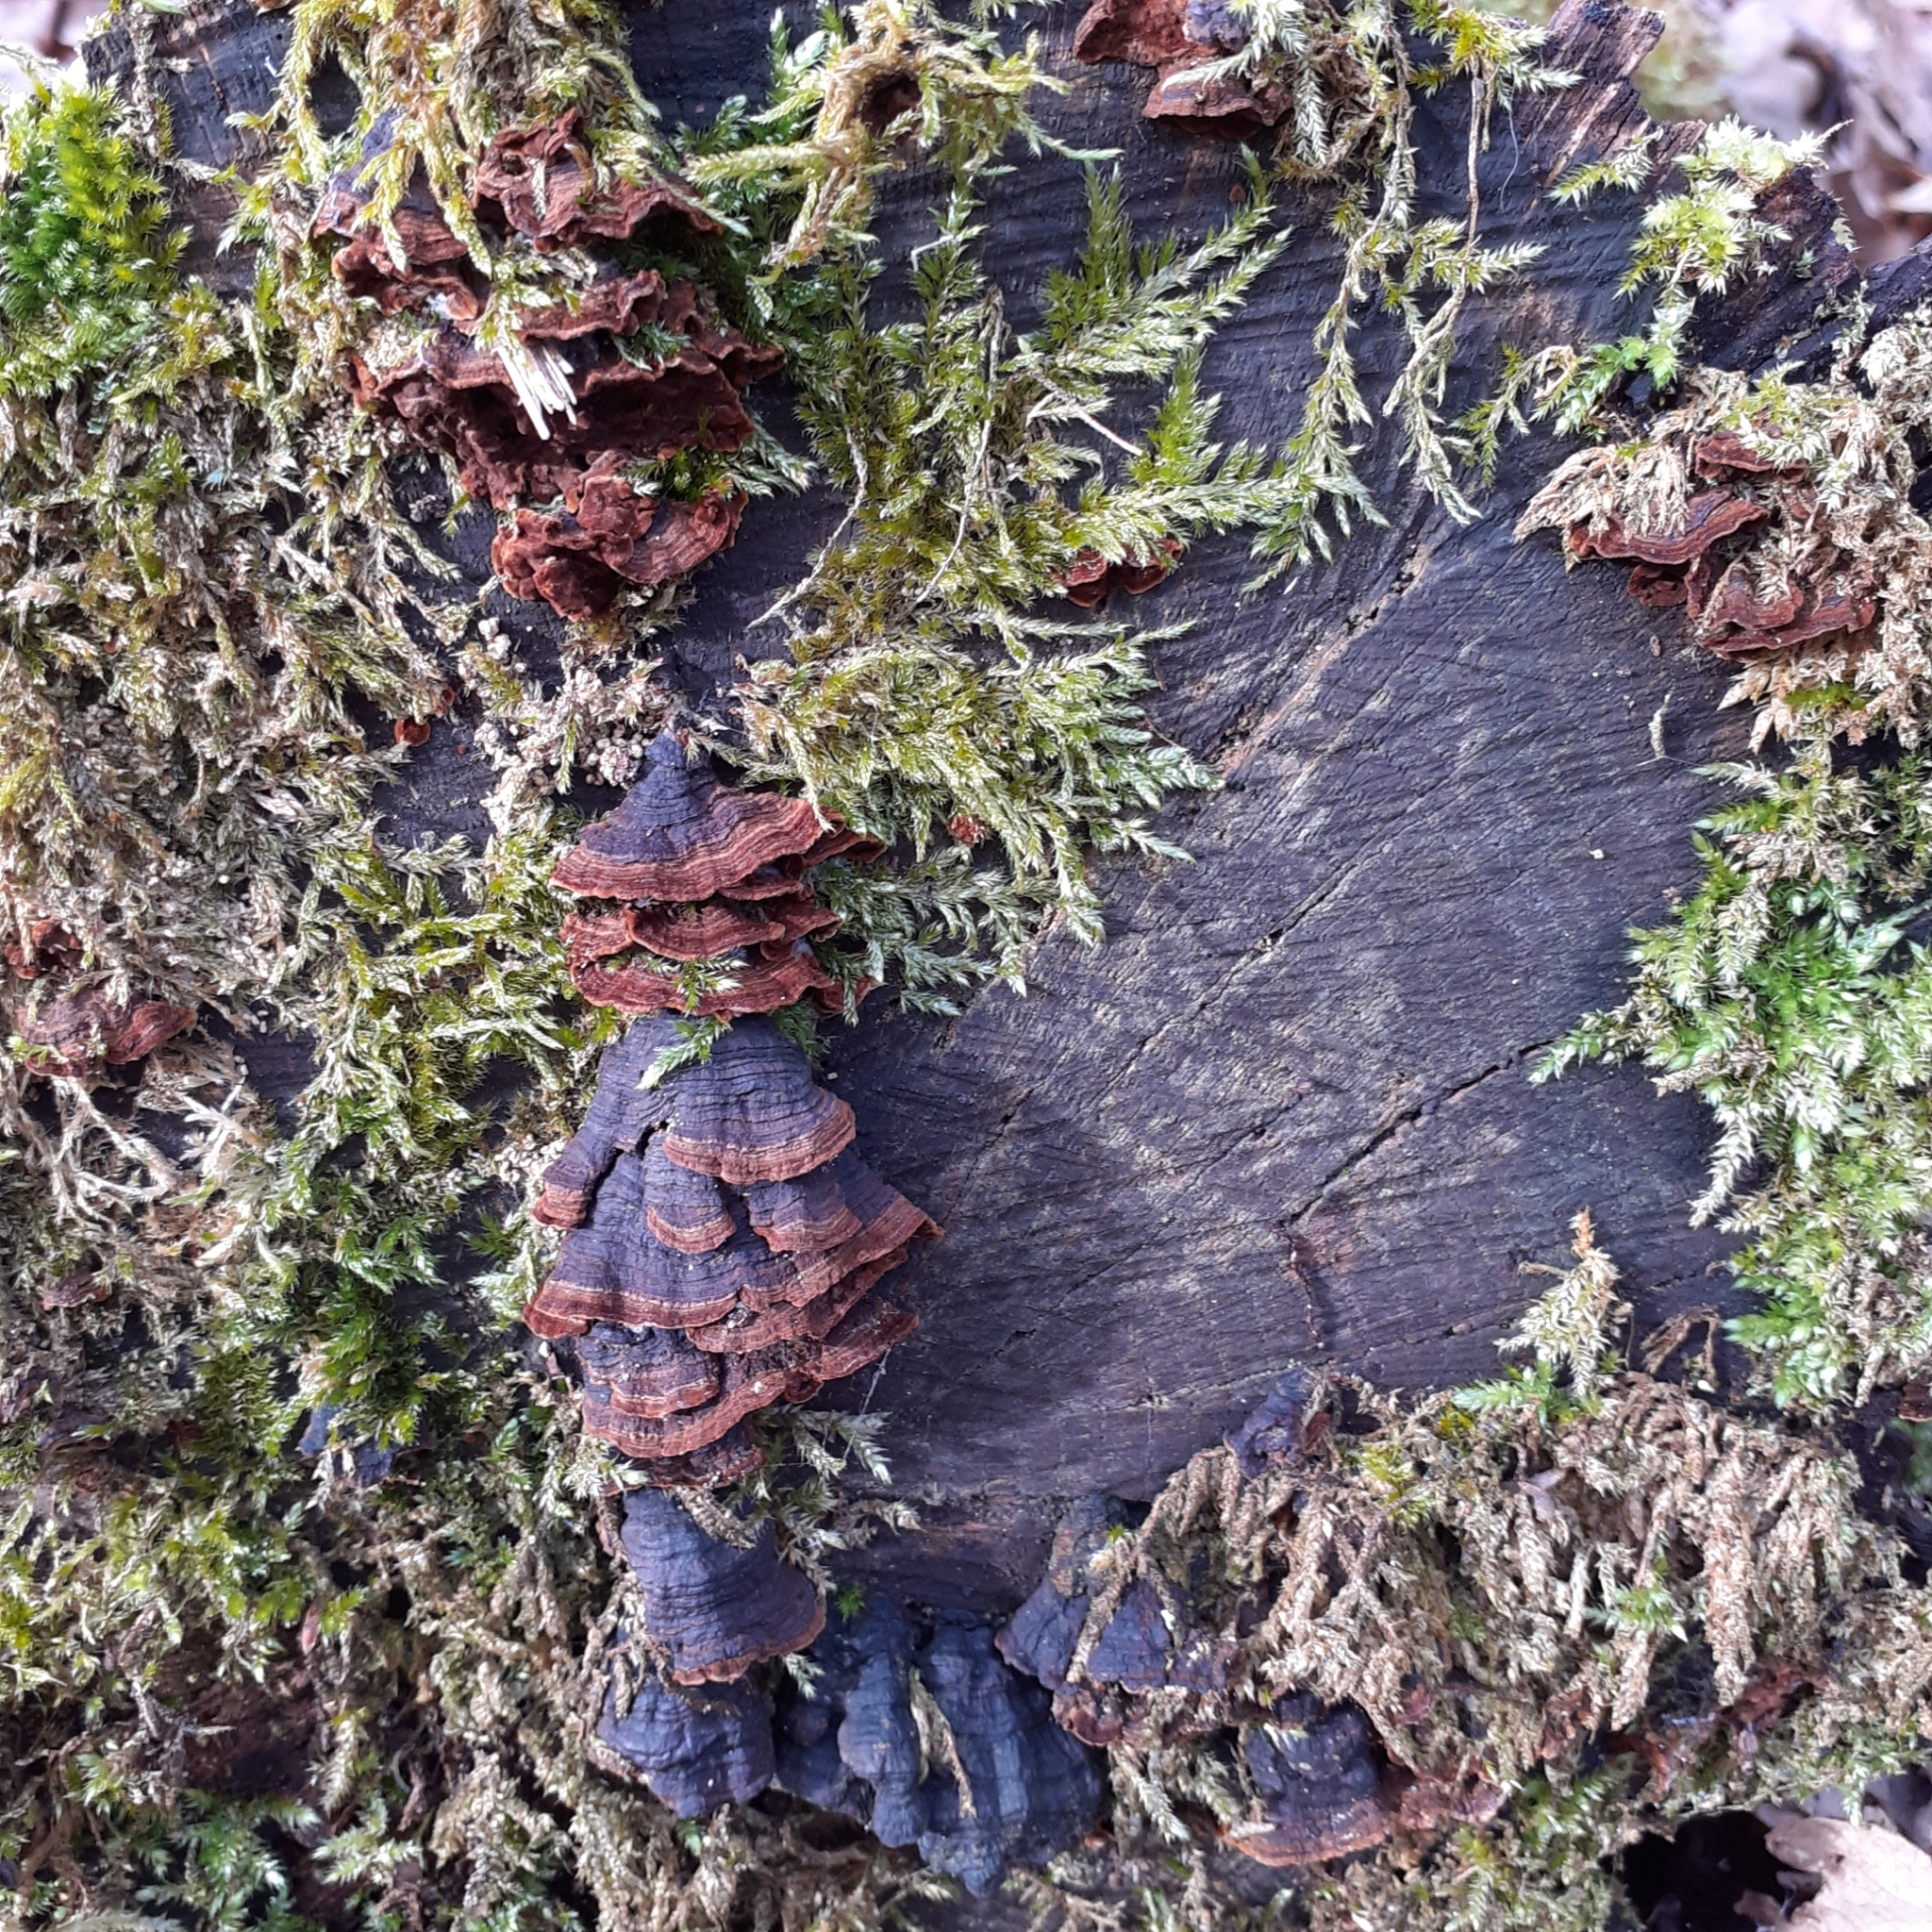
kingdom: Fungi
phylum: Basidiomycota
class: Agaricomycetes
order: Hymenochaetales
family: Hymenochaetaceae
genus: Hymenochaete
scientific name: Hymenochaete rubiginosa
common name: Oak curtain crust
